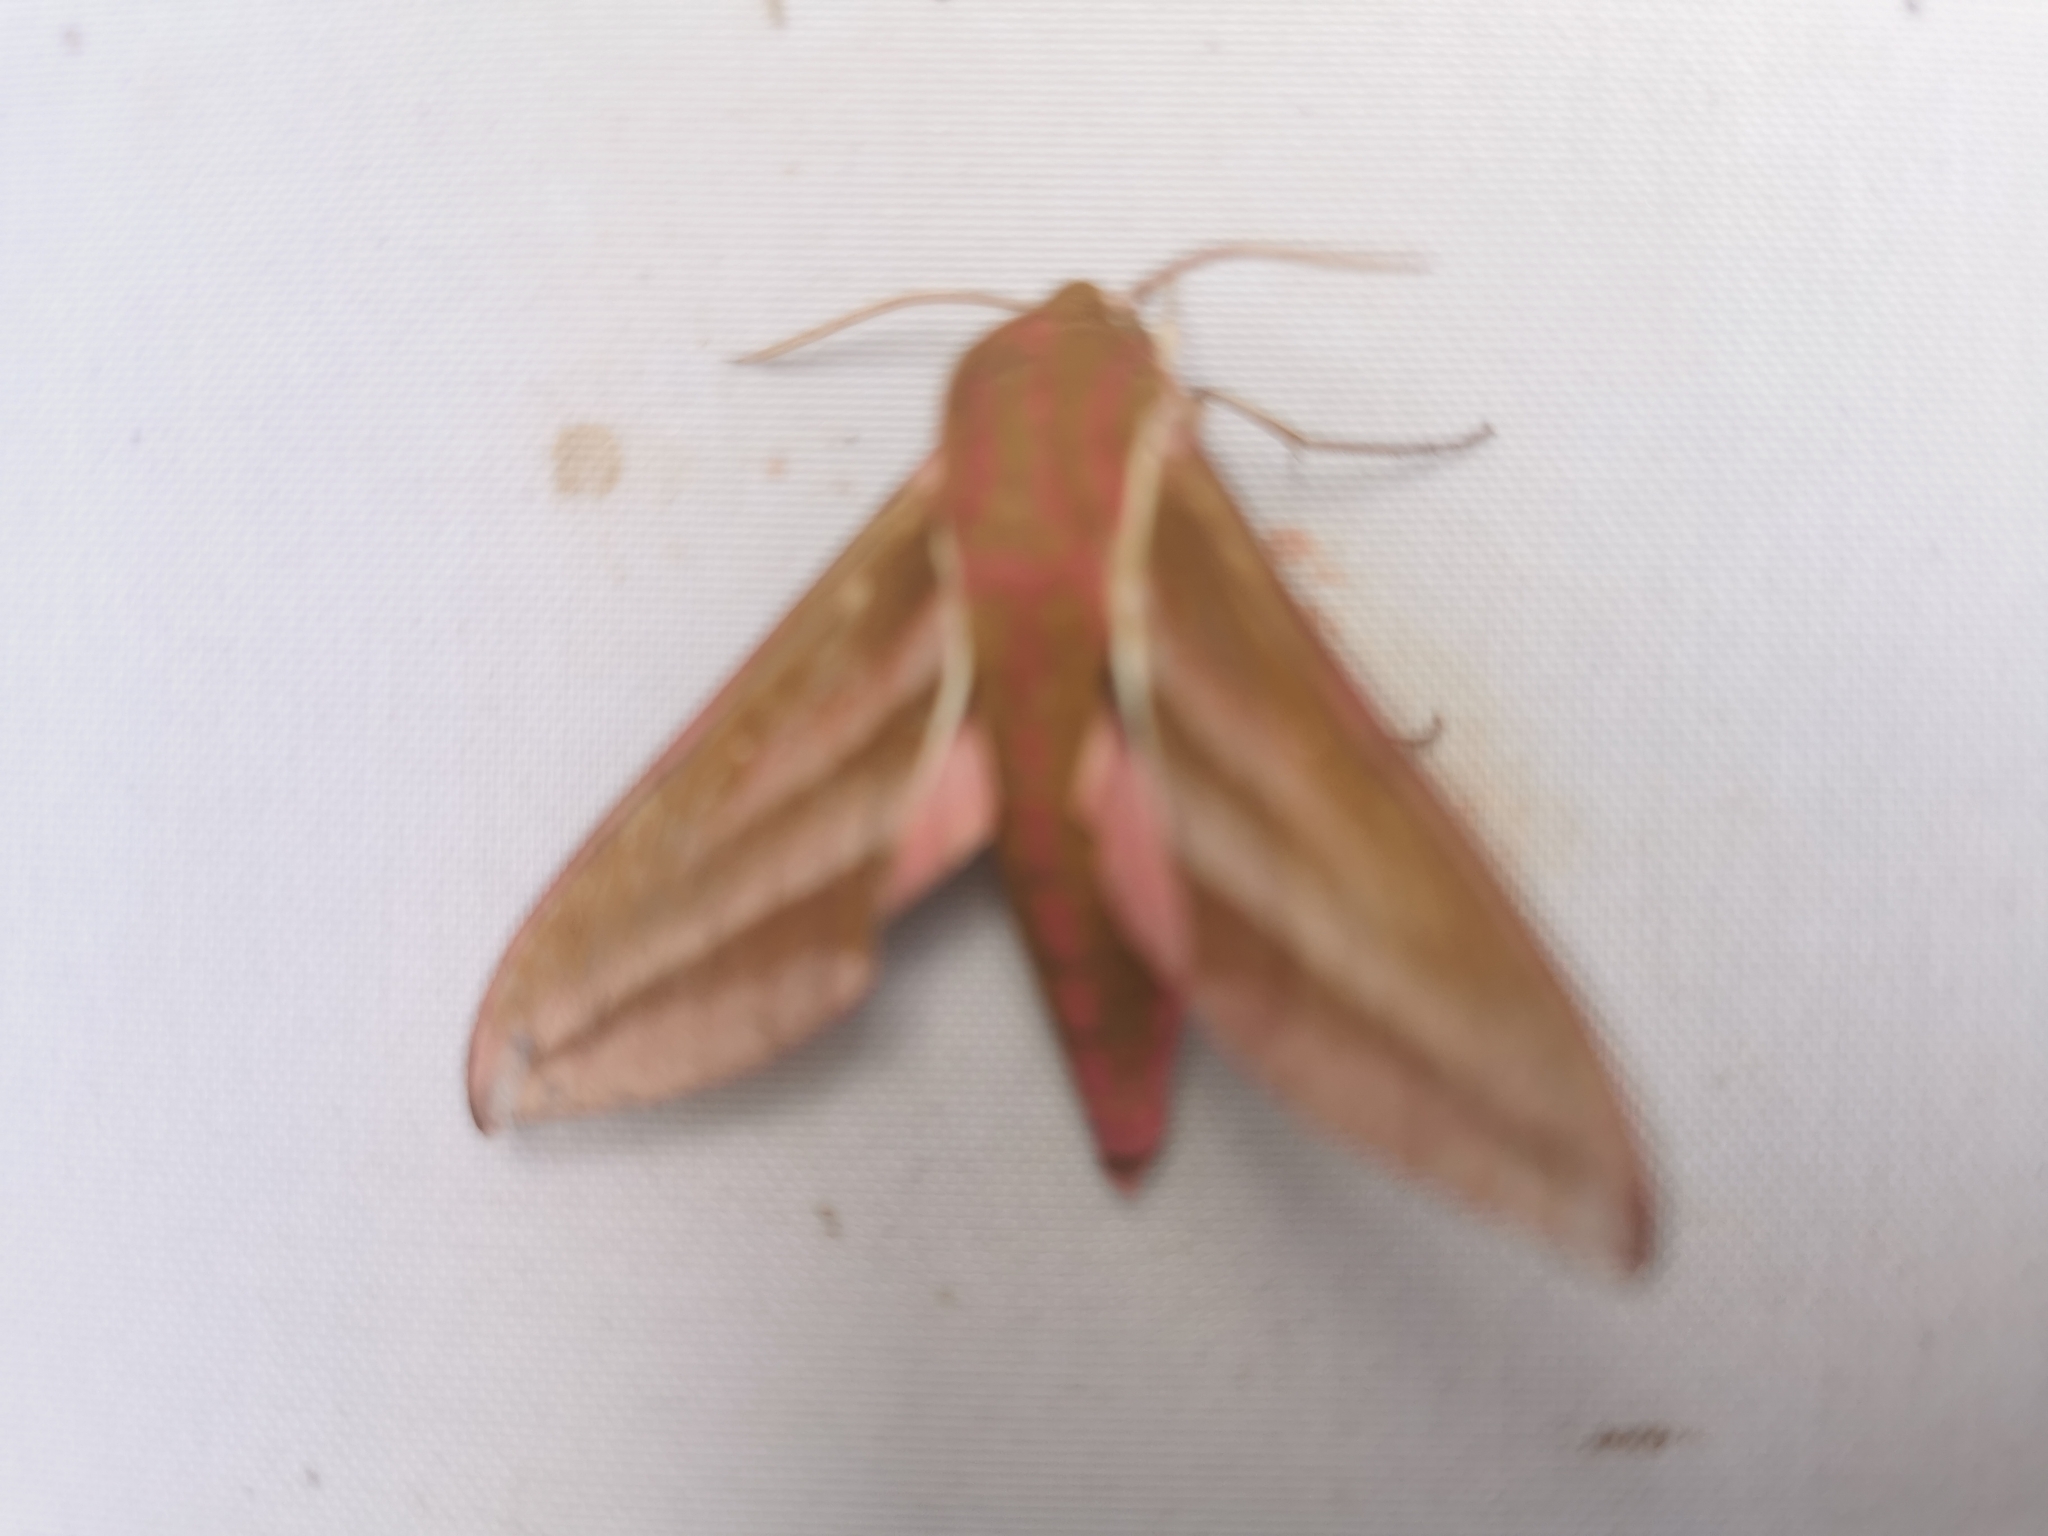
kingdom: Animalia
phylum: Arthropoda
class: Insecta
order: Lepidoptera
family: Sphingidae
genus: Deilephila
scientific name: Deilephila elpenor
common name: Elephant hawk-moth
